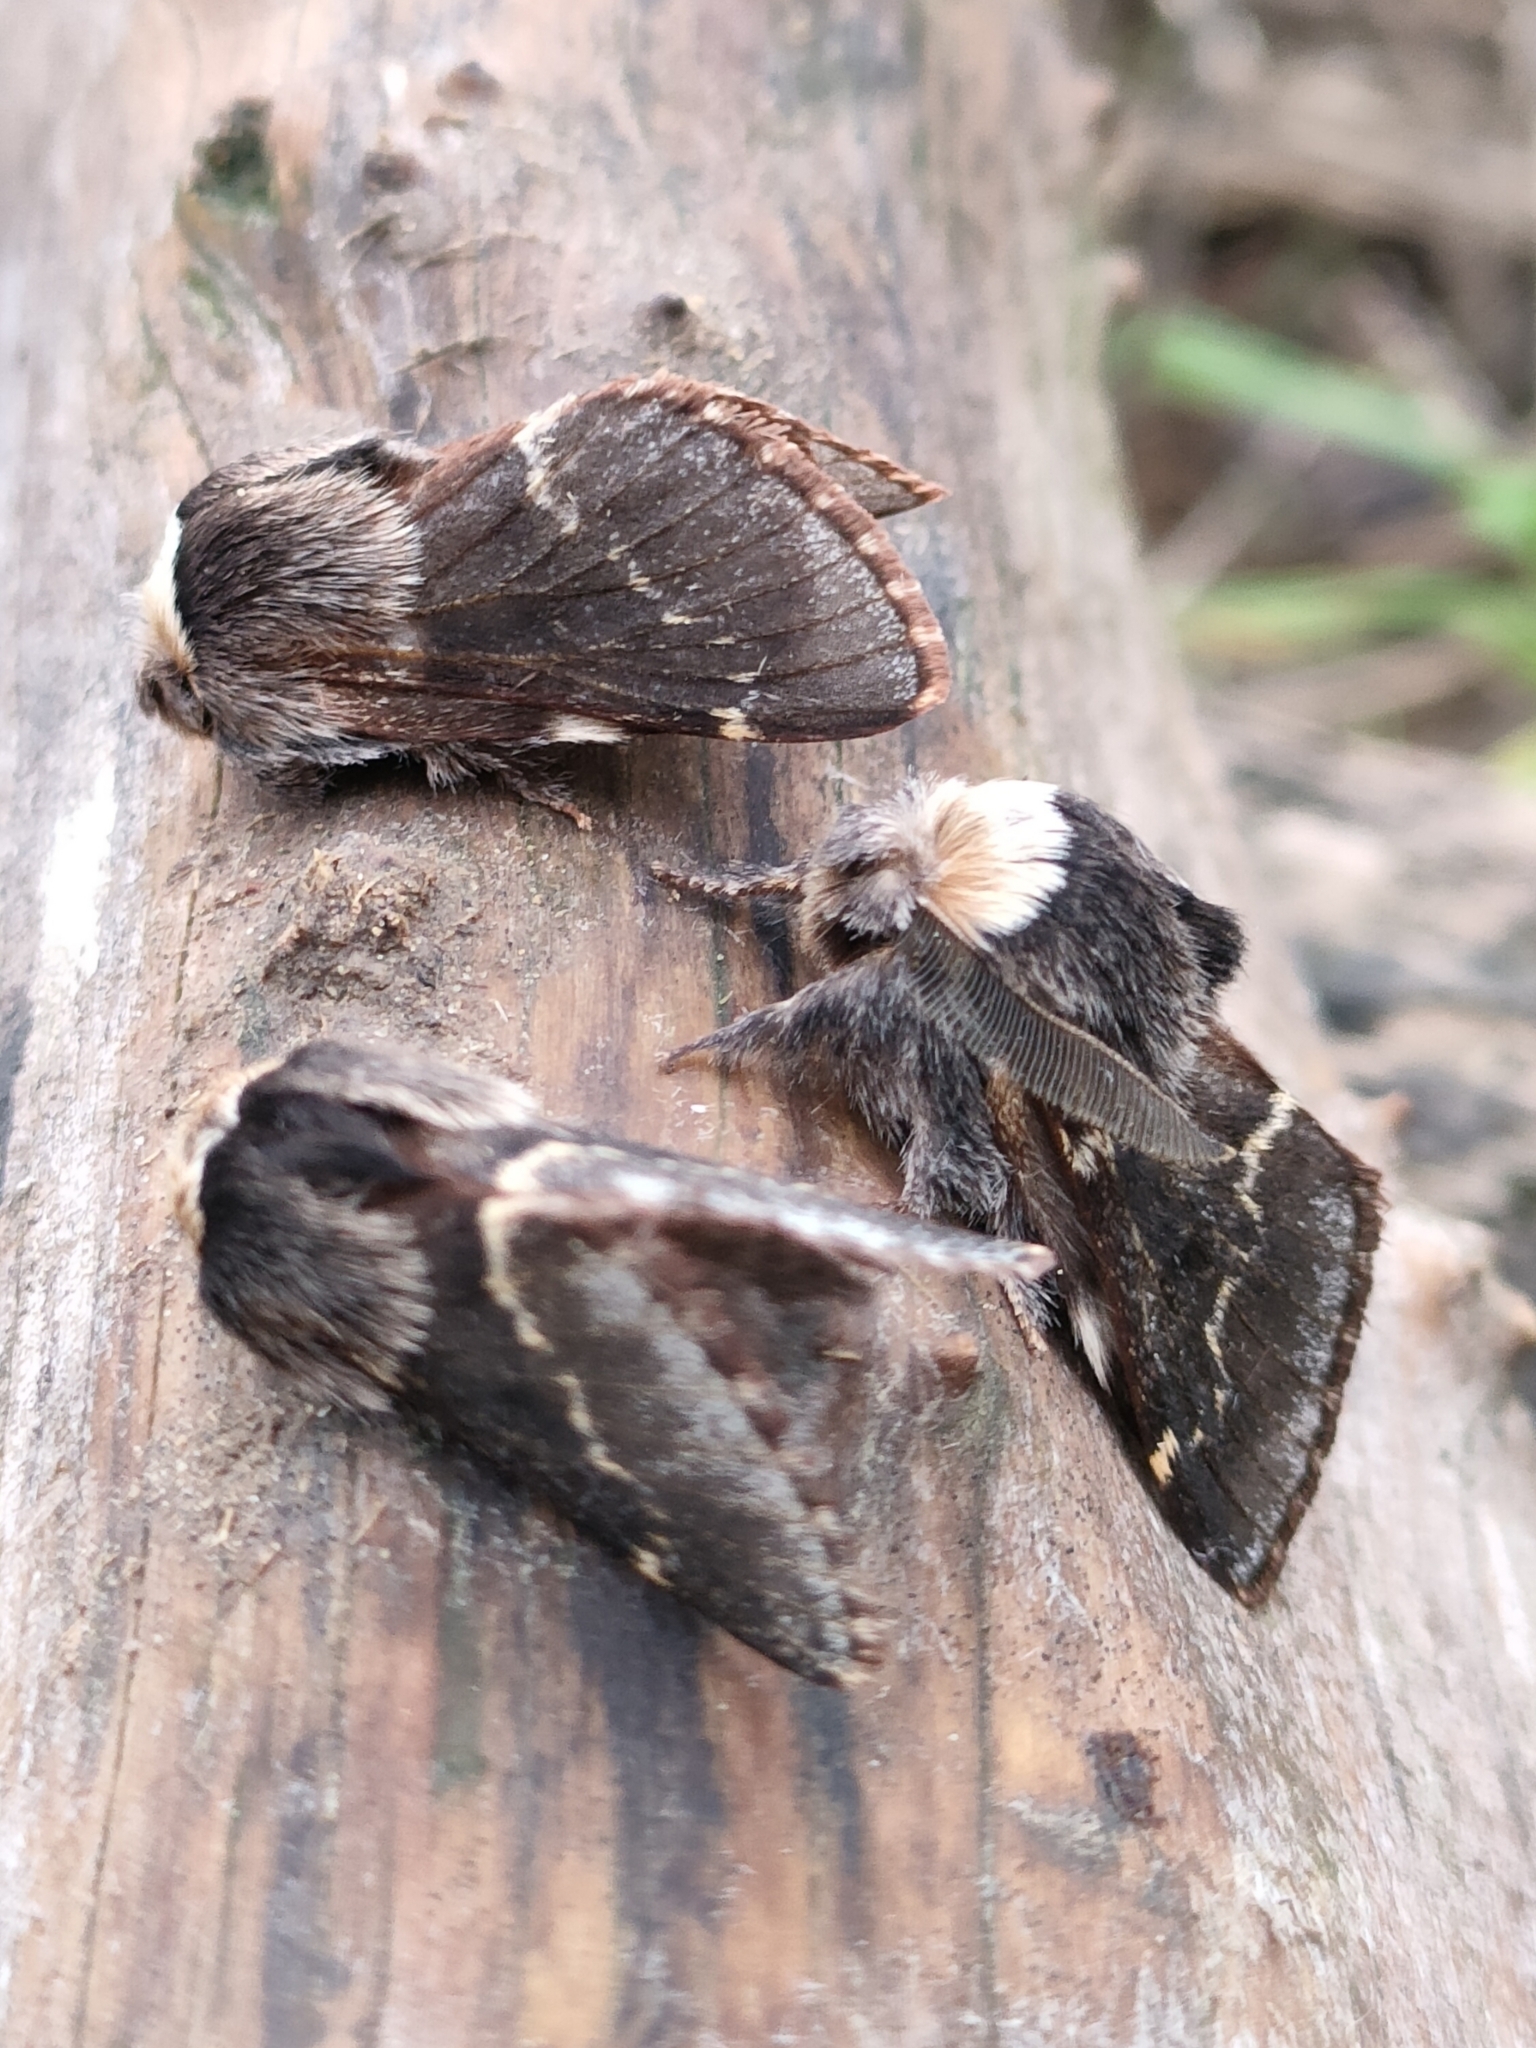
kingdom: Animalia
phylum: Arthropoda
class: Insecta
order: Lepidoptera
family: Lasiocampidae
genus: Poecilocampa
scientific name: Poecilocampa populi
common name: December moth
